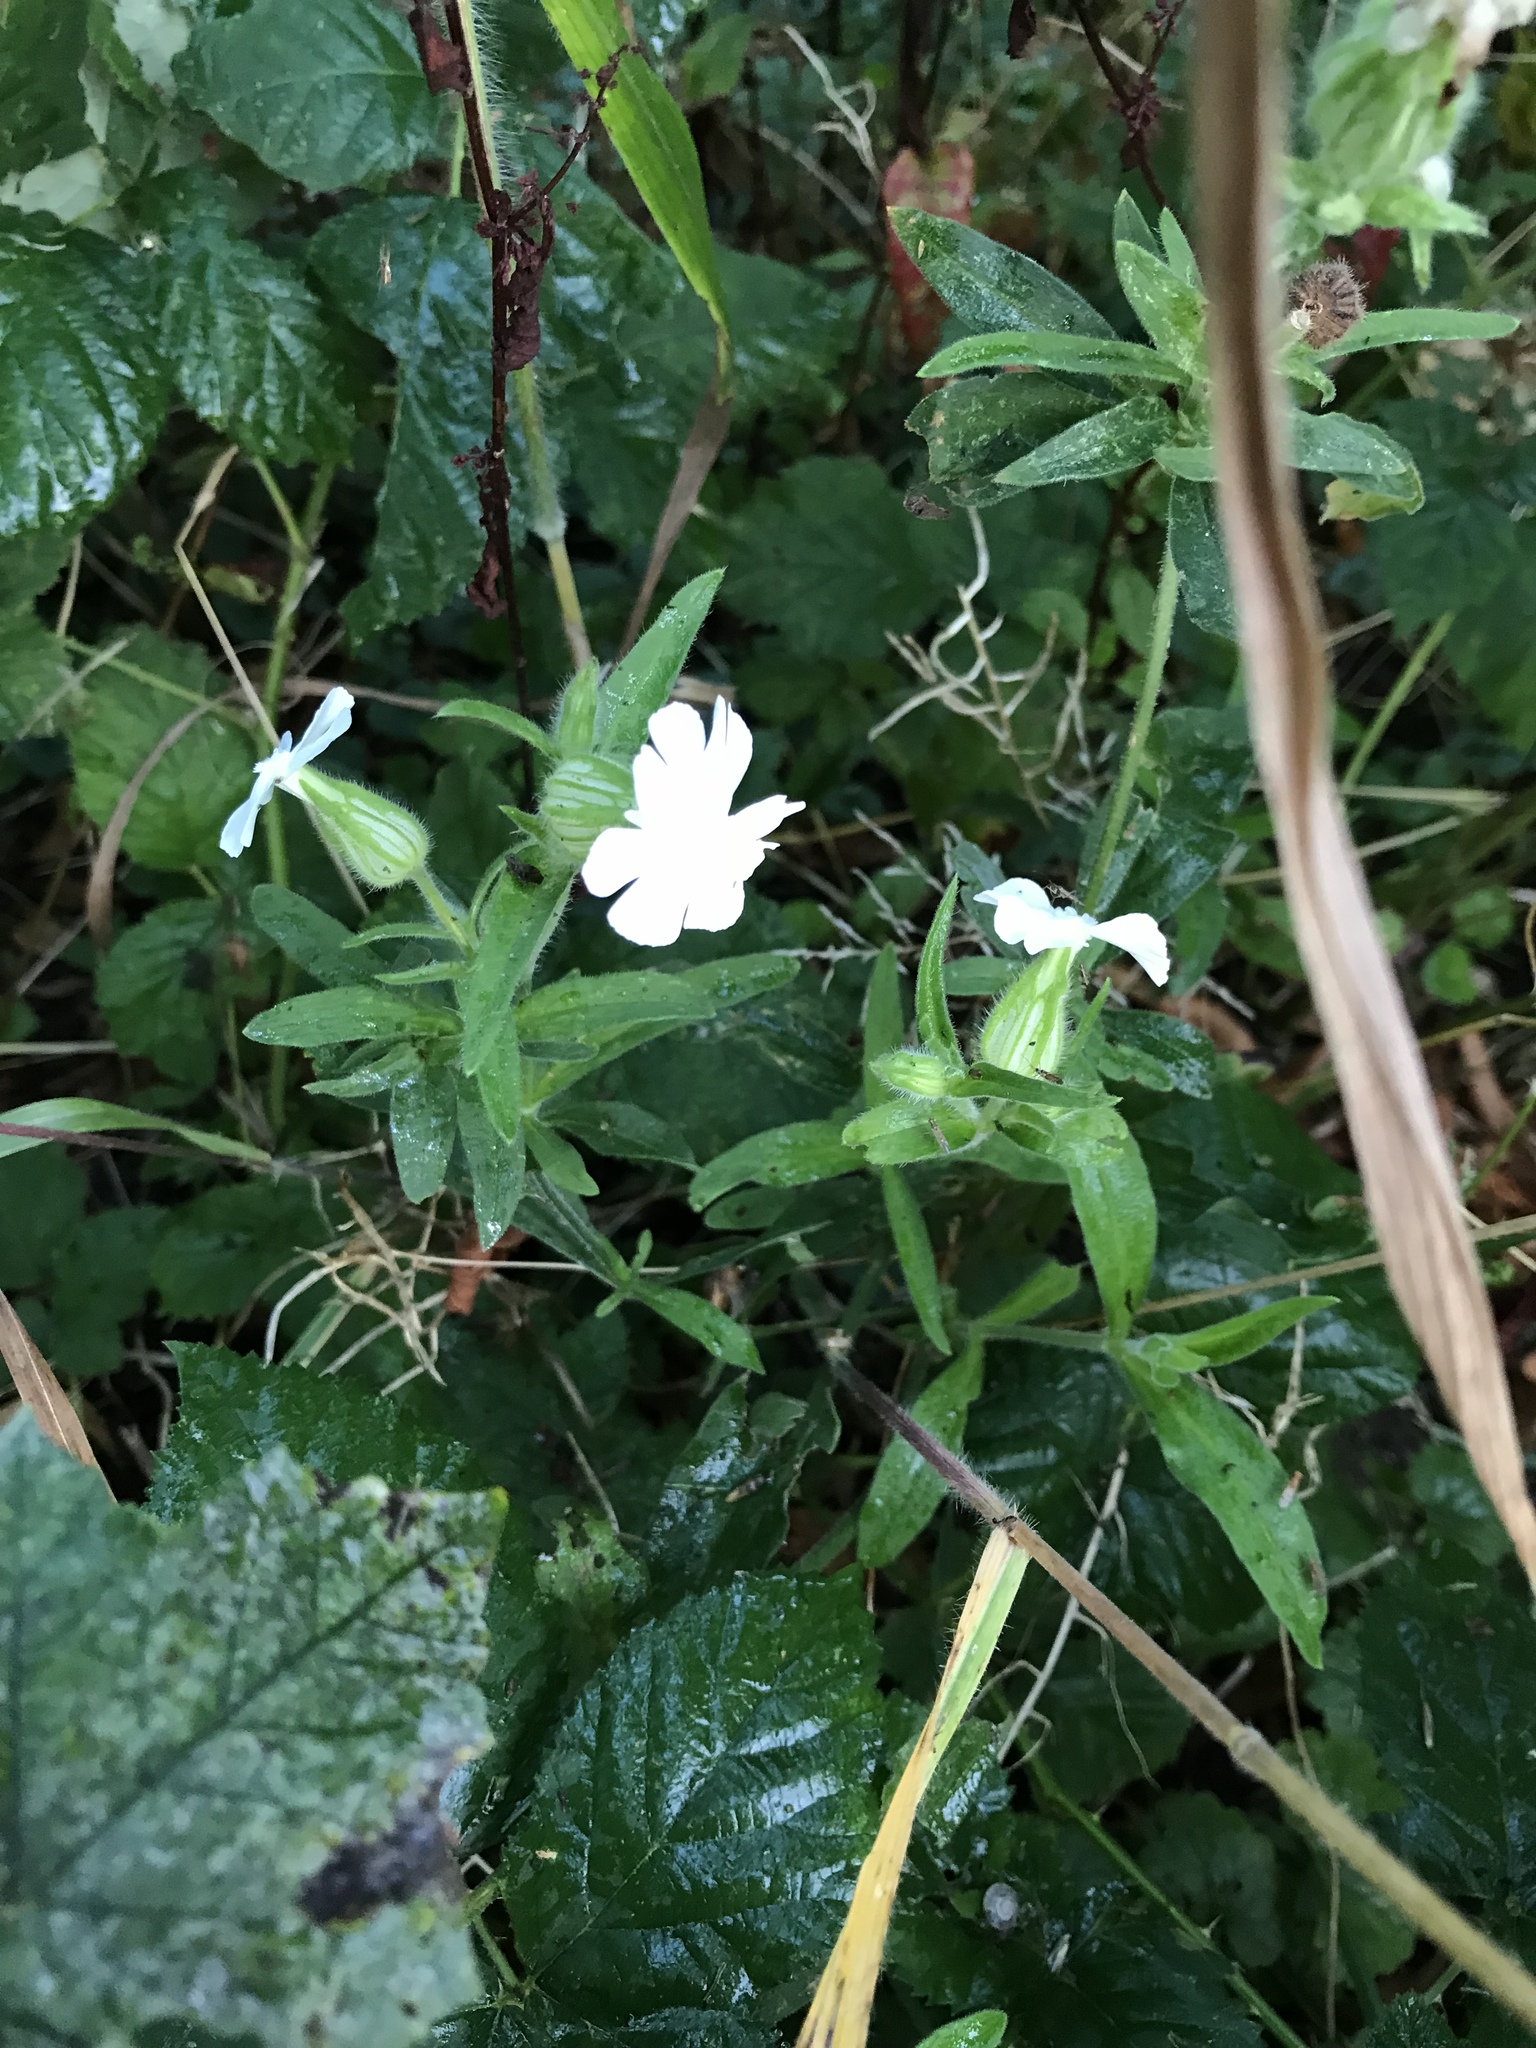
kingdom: Plantae
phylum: Tracheophyta
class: Magnoliopsida
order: Caryophyllales
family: Caryophyllaceae
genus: Silene
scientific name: Silene latifolia
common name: White campion
